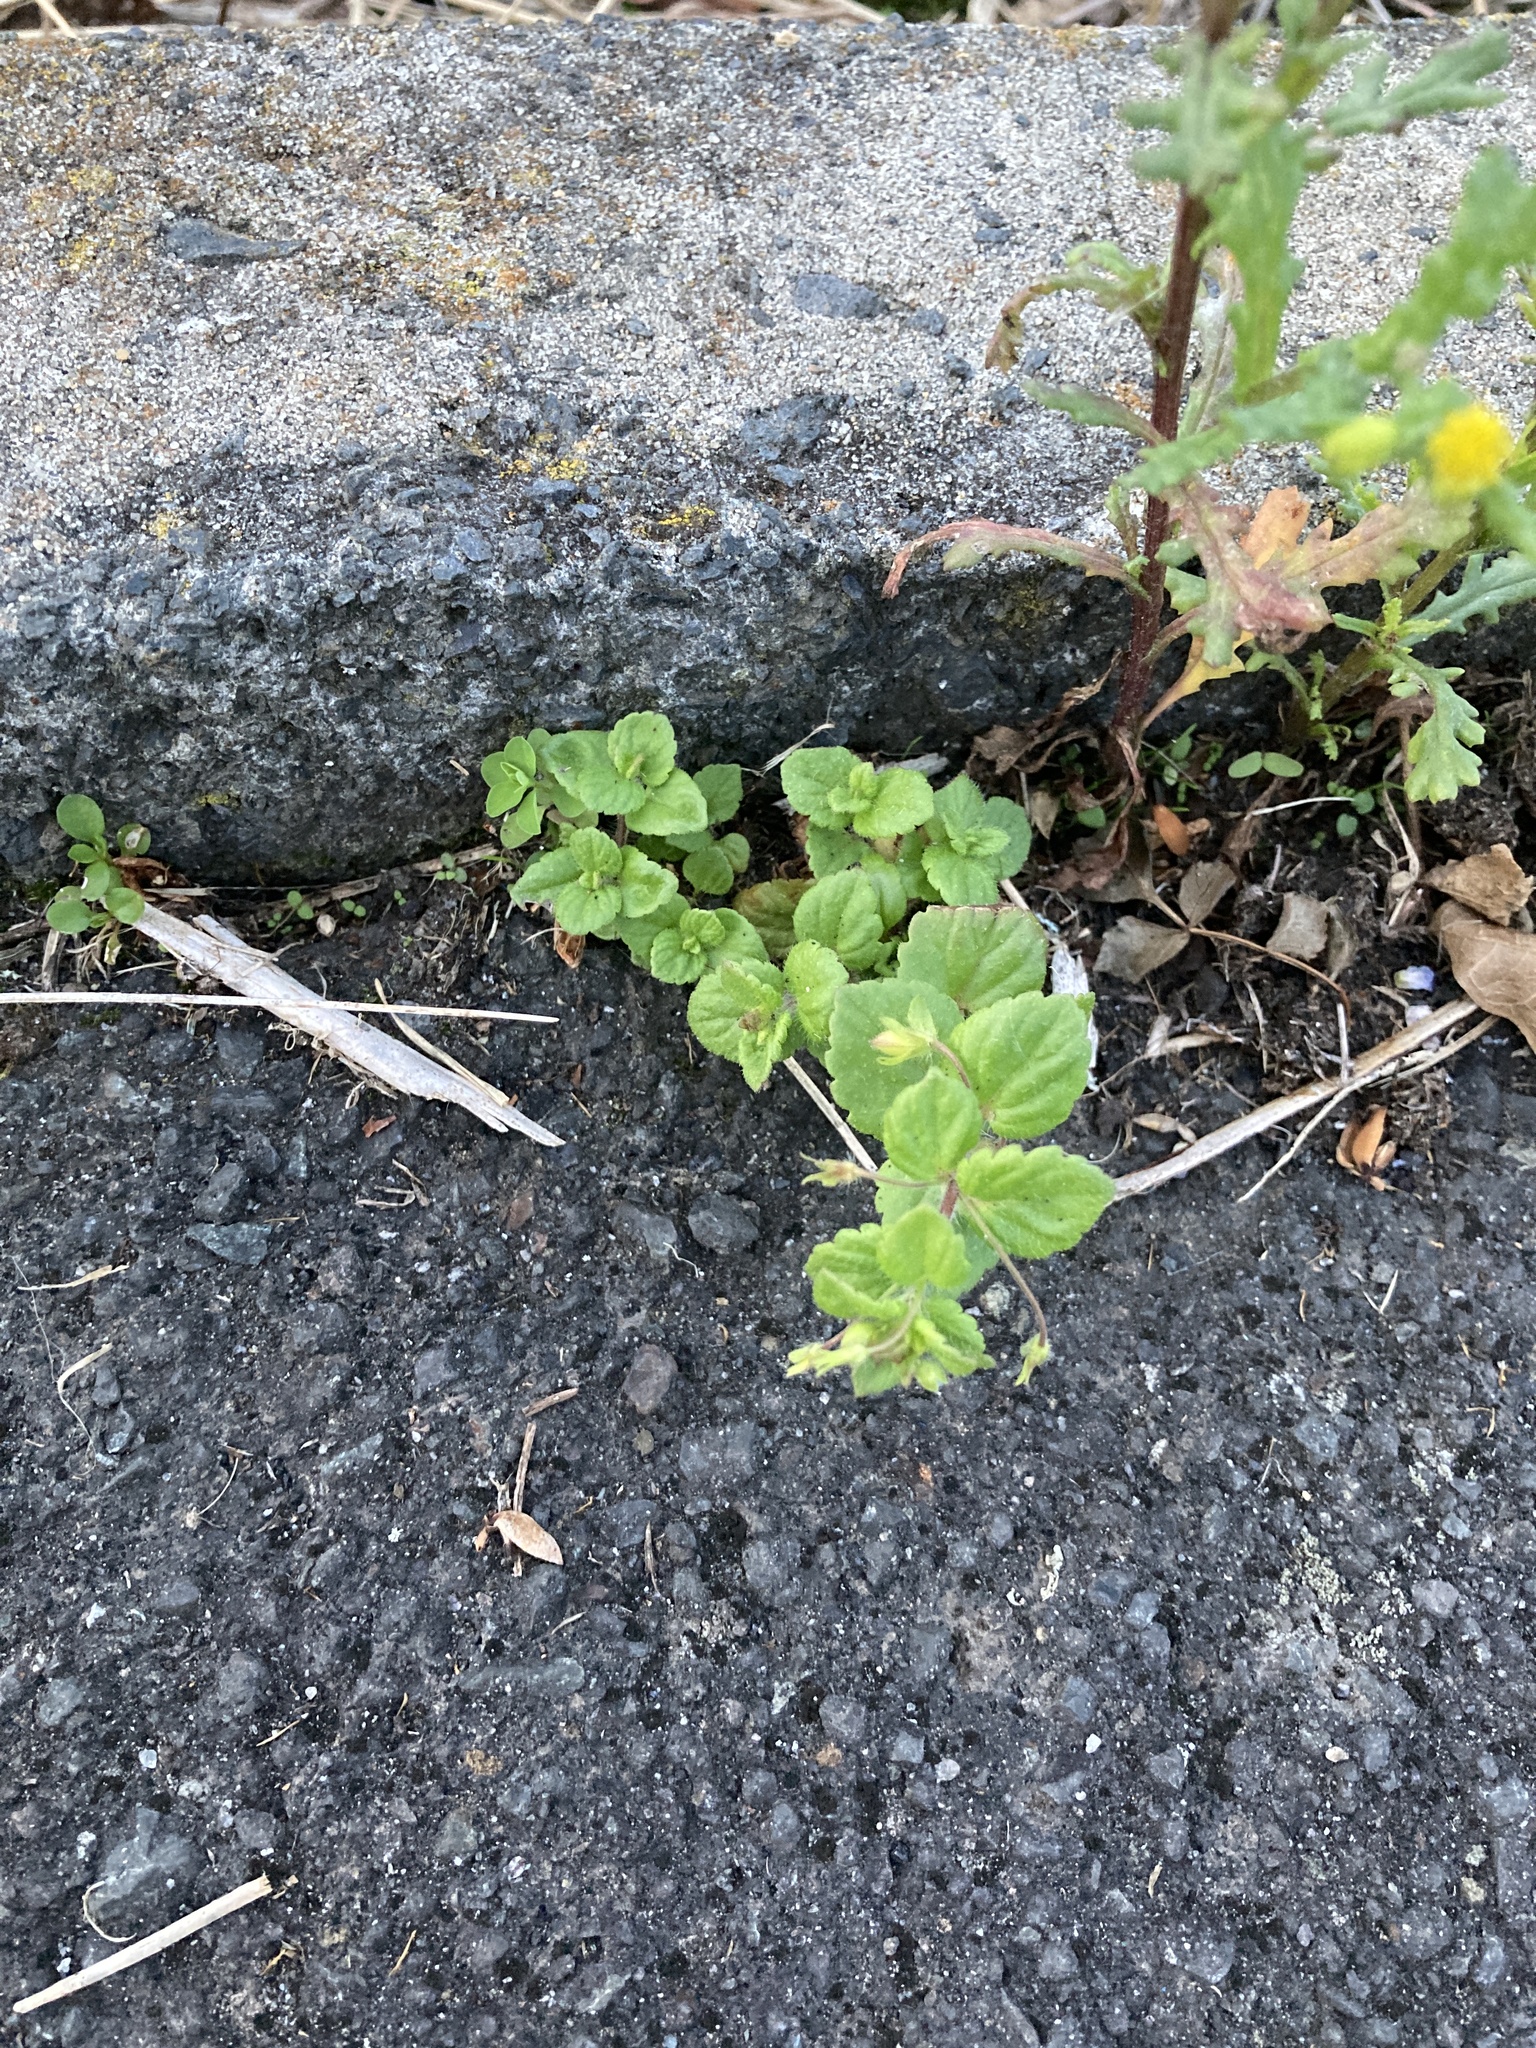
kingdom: Plantae
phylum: Tracheophyta
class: Magnoliopsida
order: Lamiales
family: Plantaginaceae
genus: Veronica
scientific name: Veronica arvensis
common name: Corn speedwell
